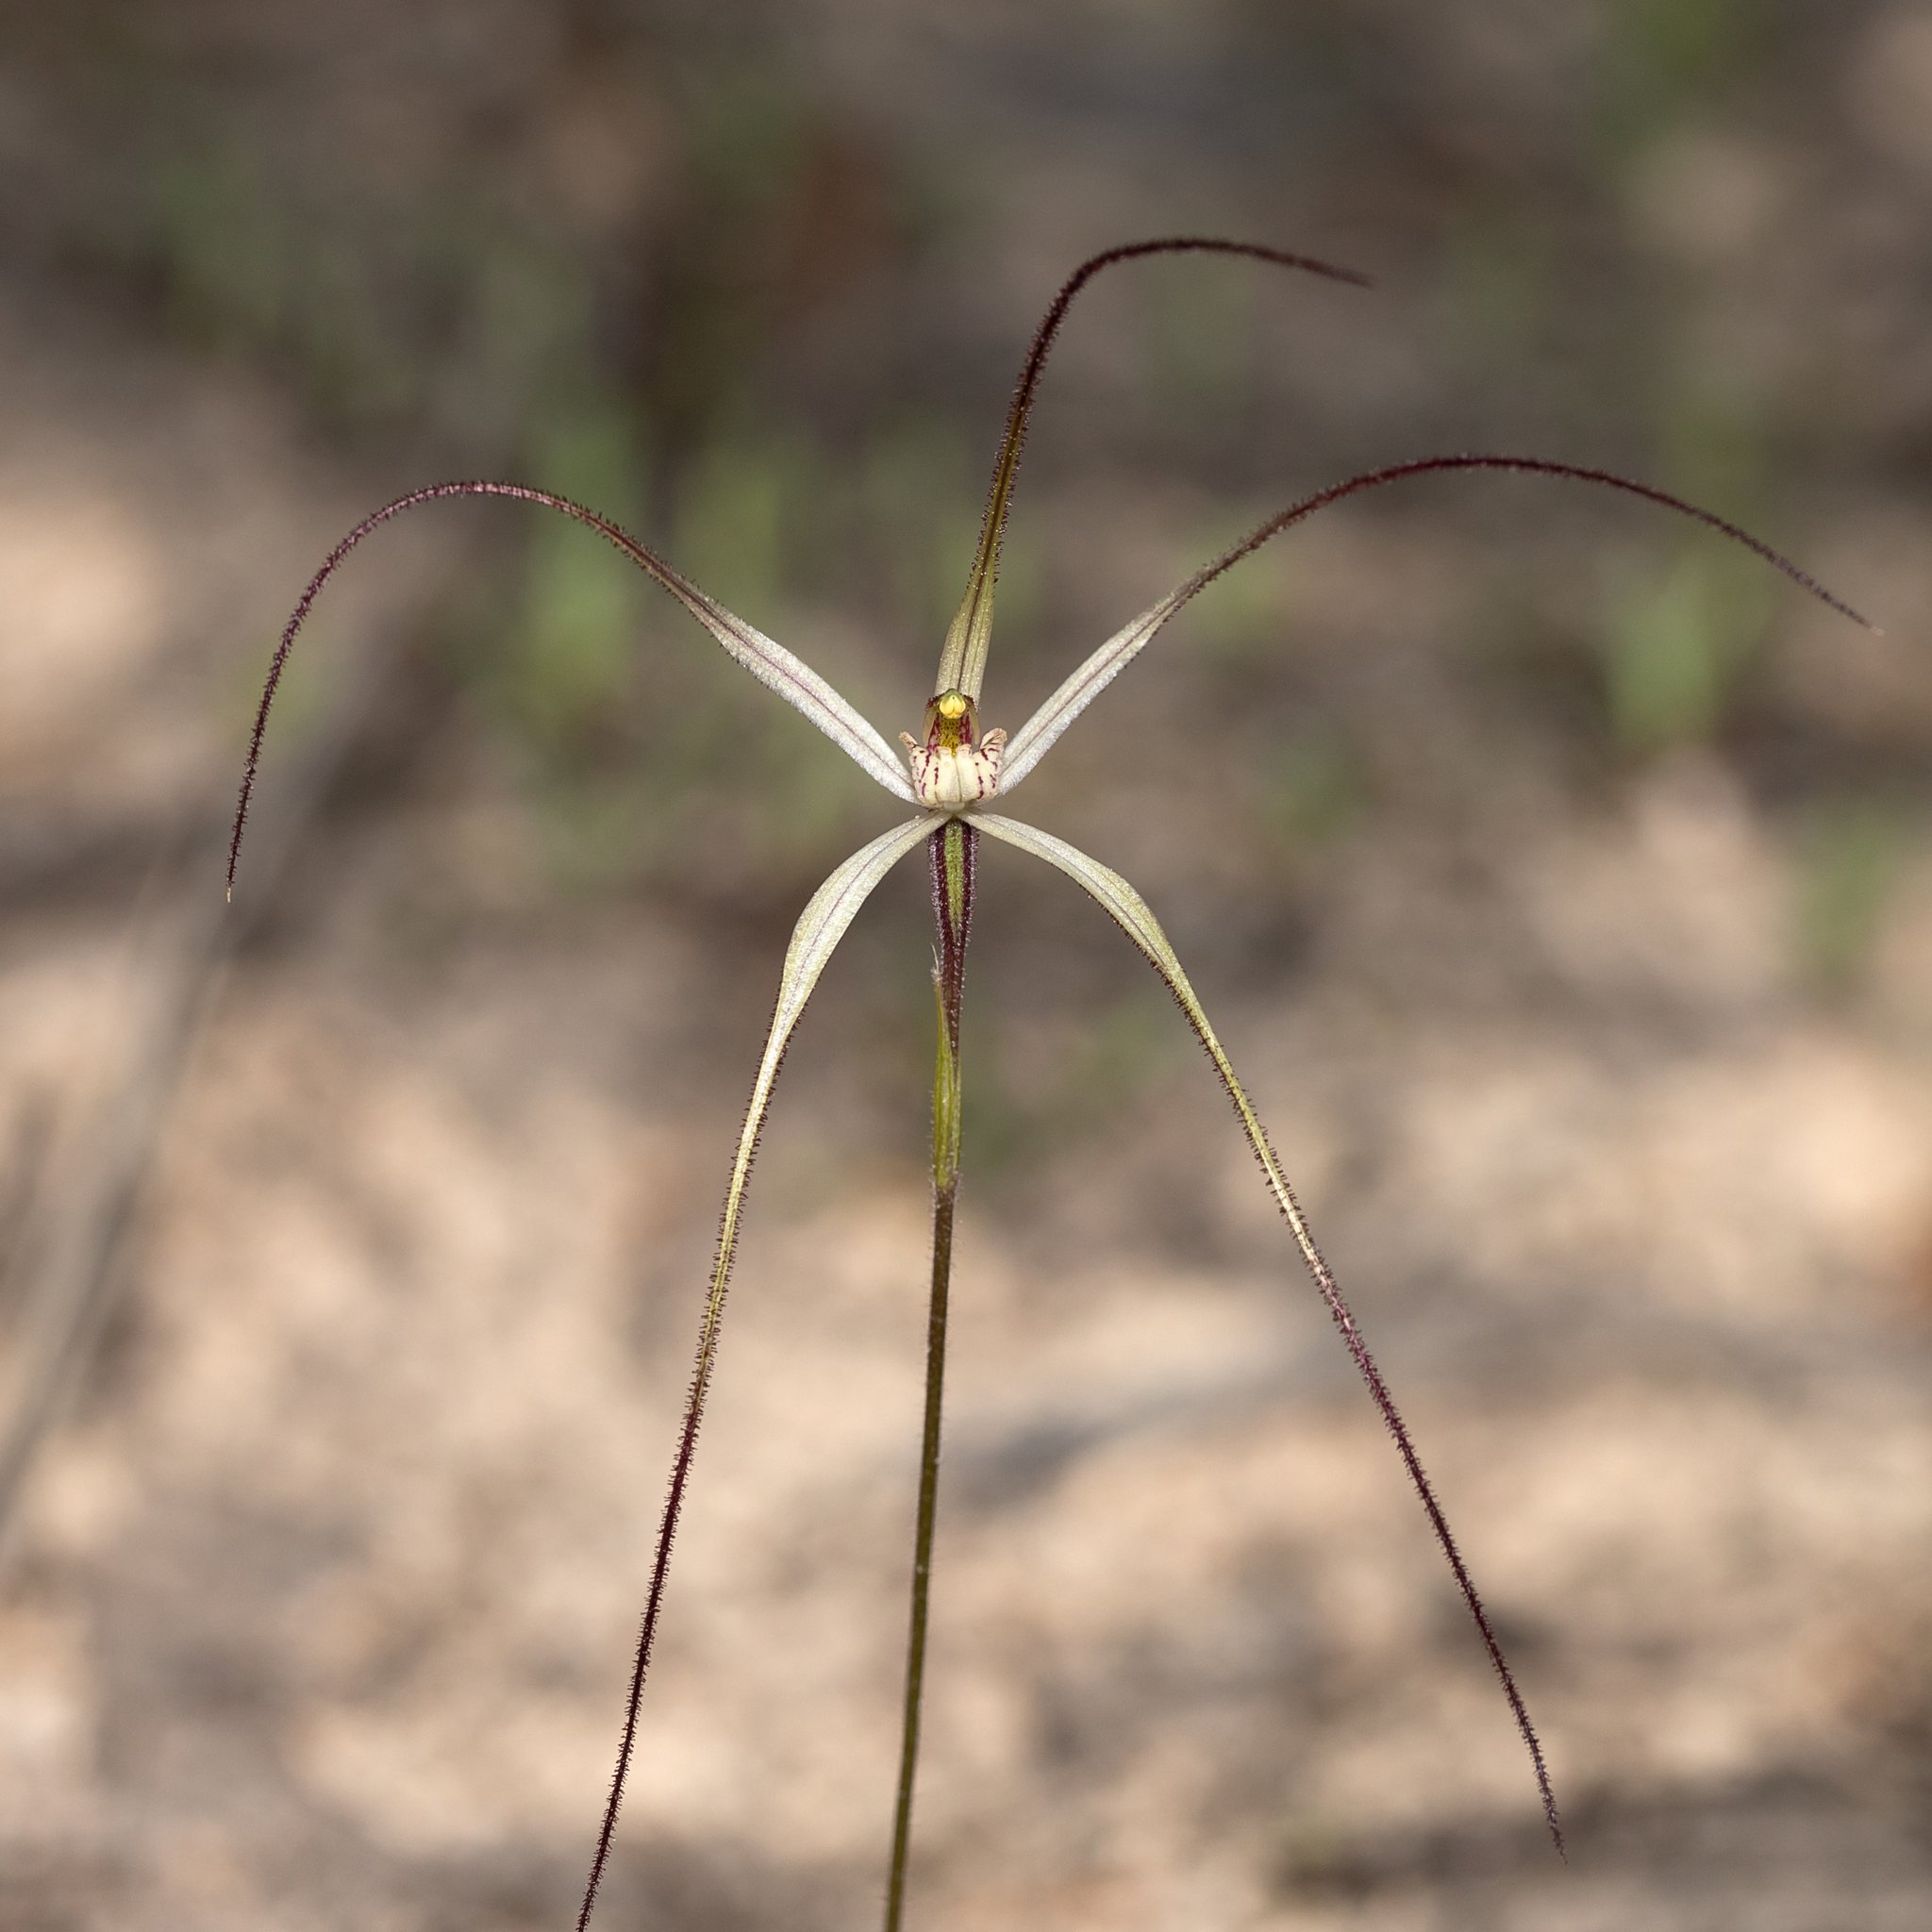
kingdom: Plantae
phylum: Tracheophyta
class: Liliopsida
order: Asparagales
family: Orchidaceae
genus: Caladenia
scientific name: Caladenia capillata
